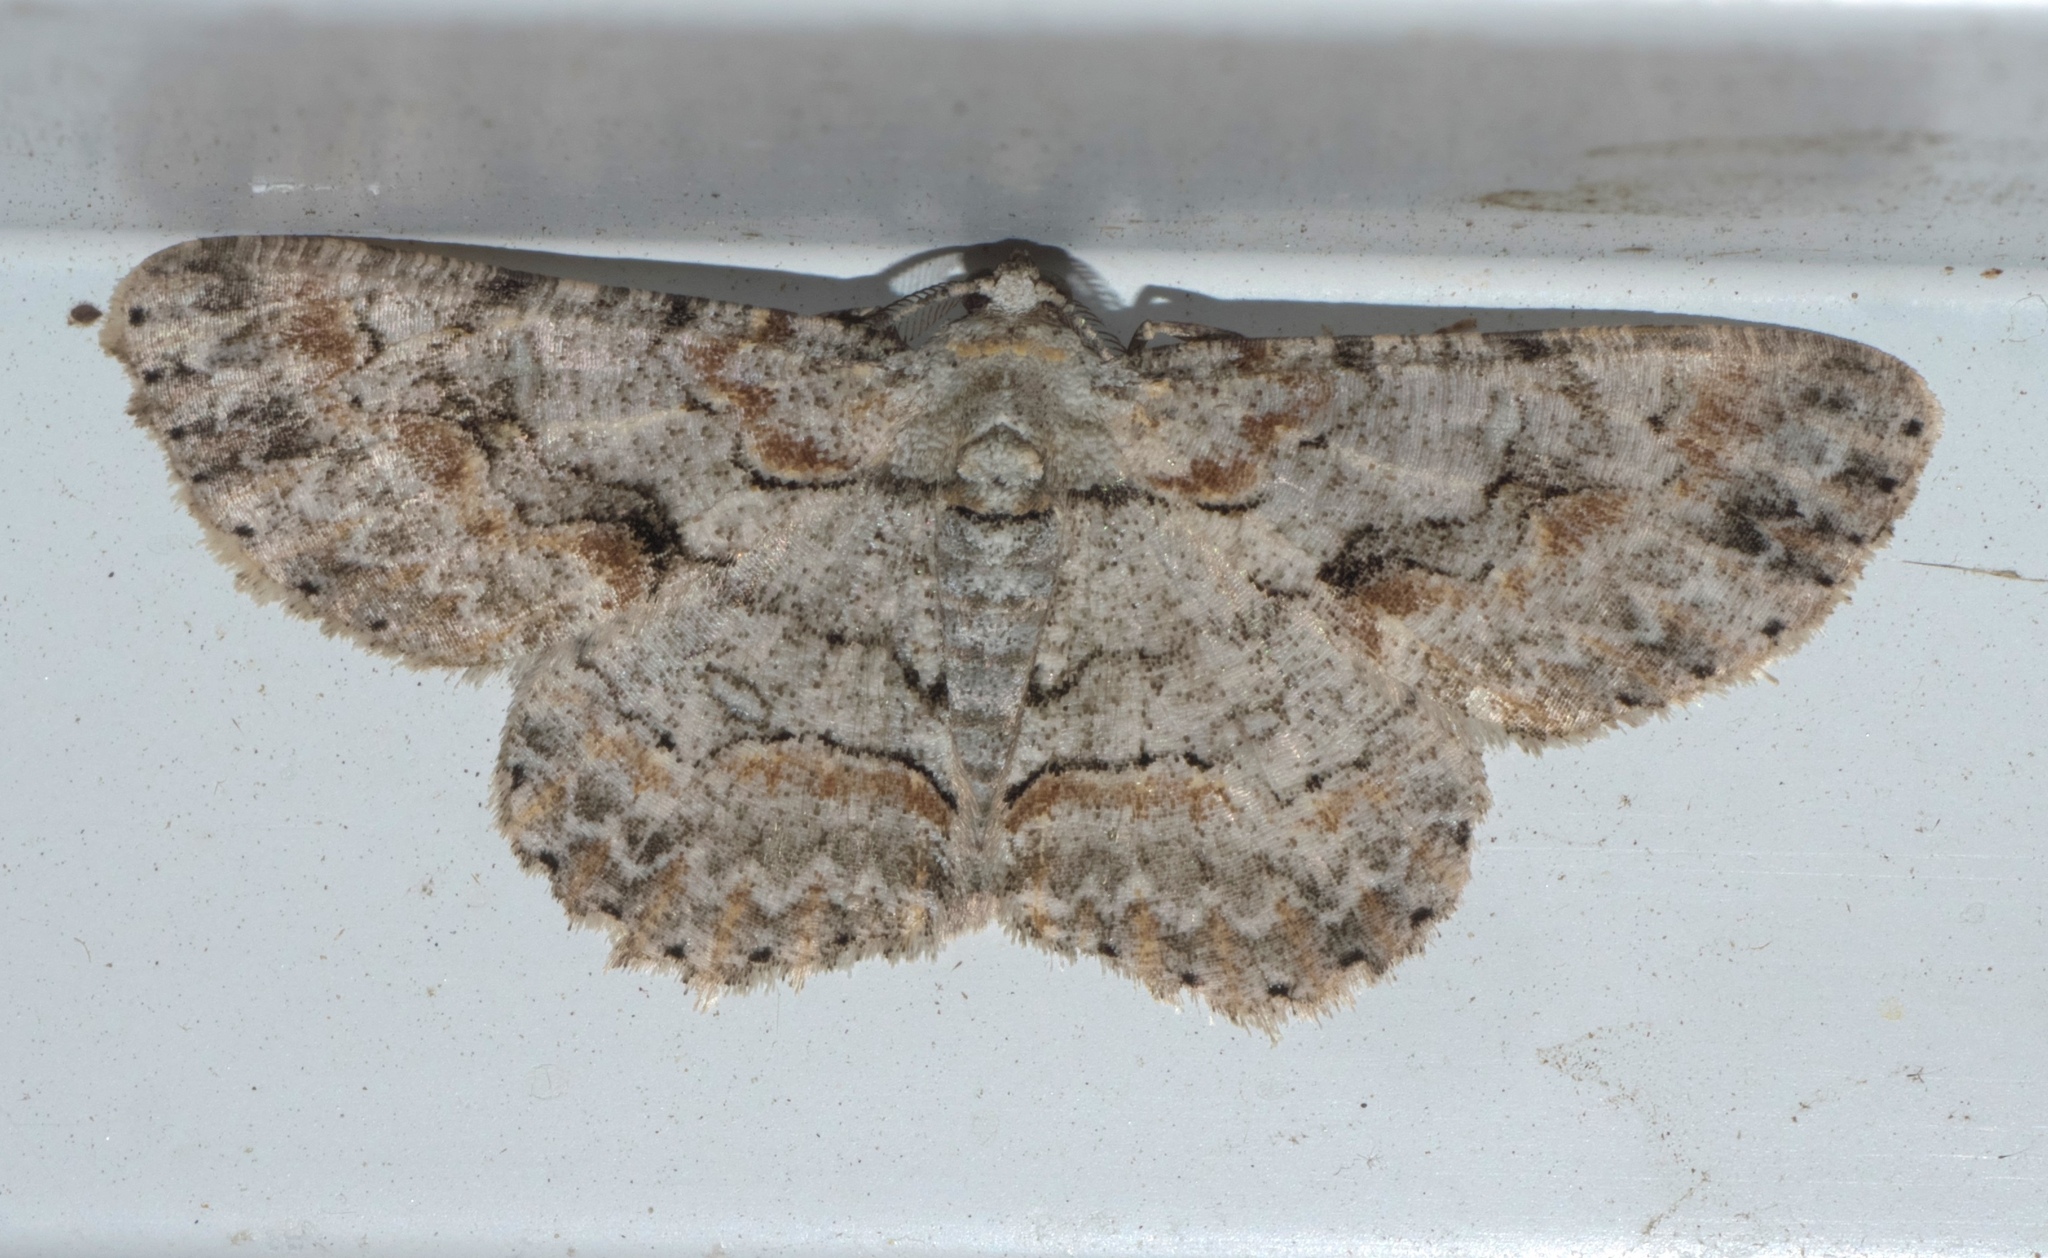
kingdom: Animalia
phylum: Arthropoda
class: Insecta
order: Lepidoptera
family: Geometridae
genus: Iridopsis
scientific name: Iridopsis defectaria
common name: Brown-shaded gray
